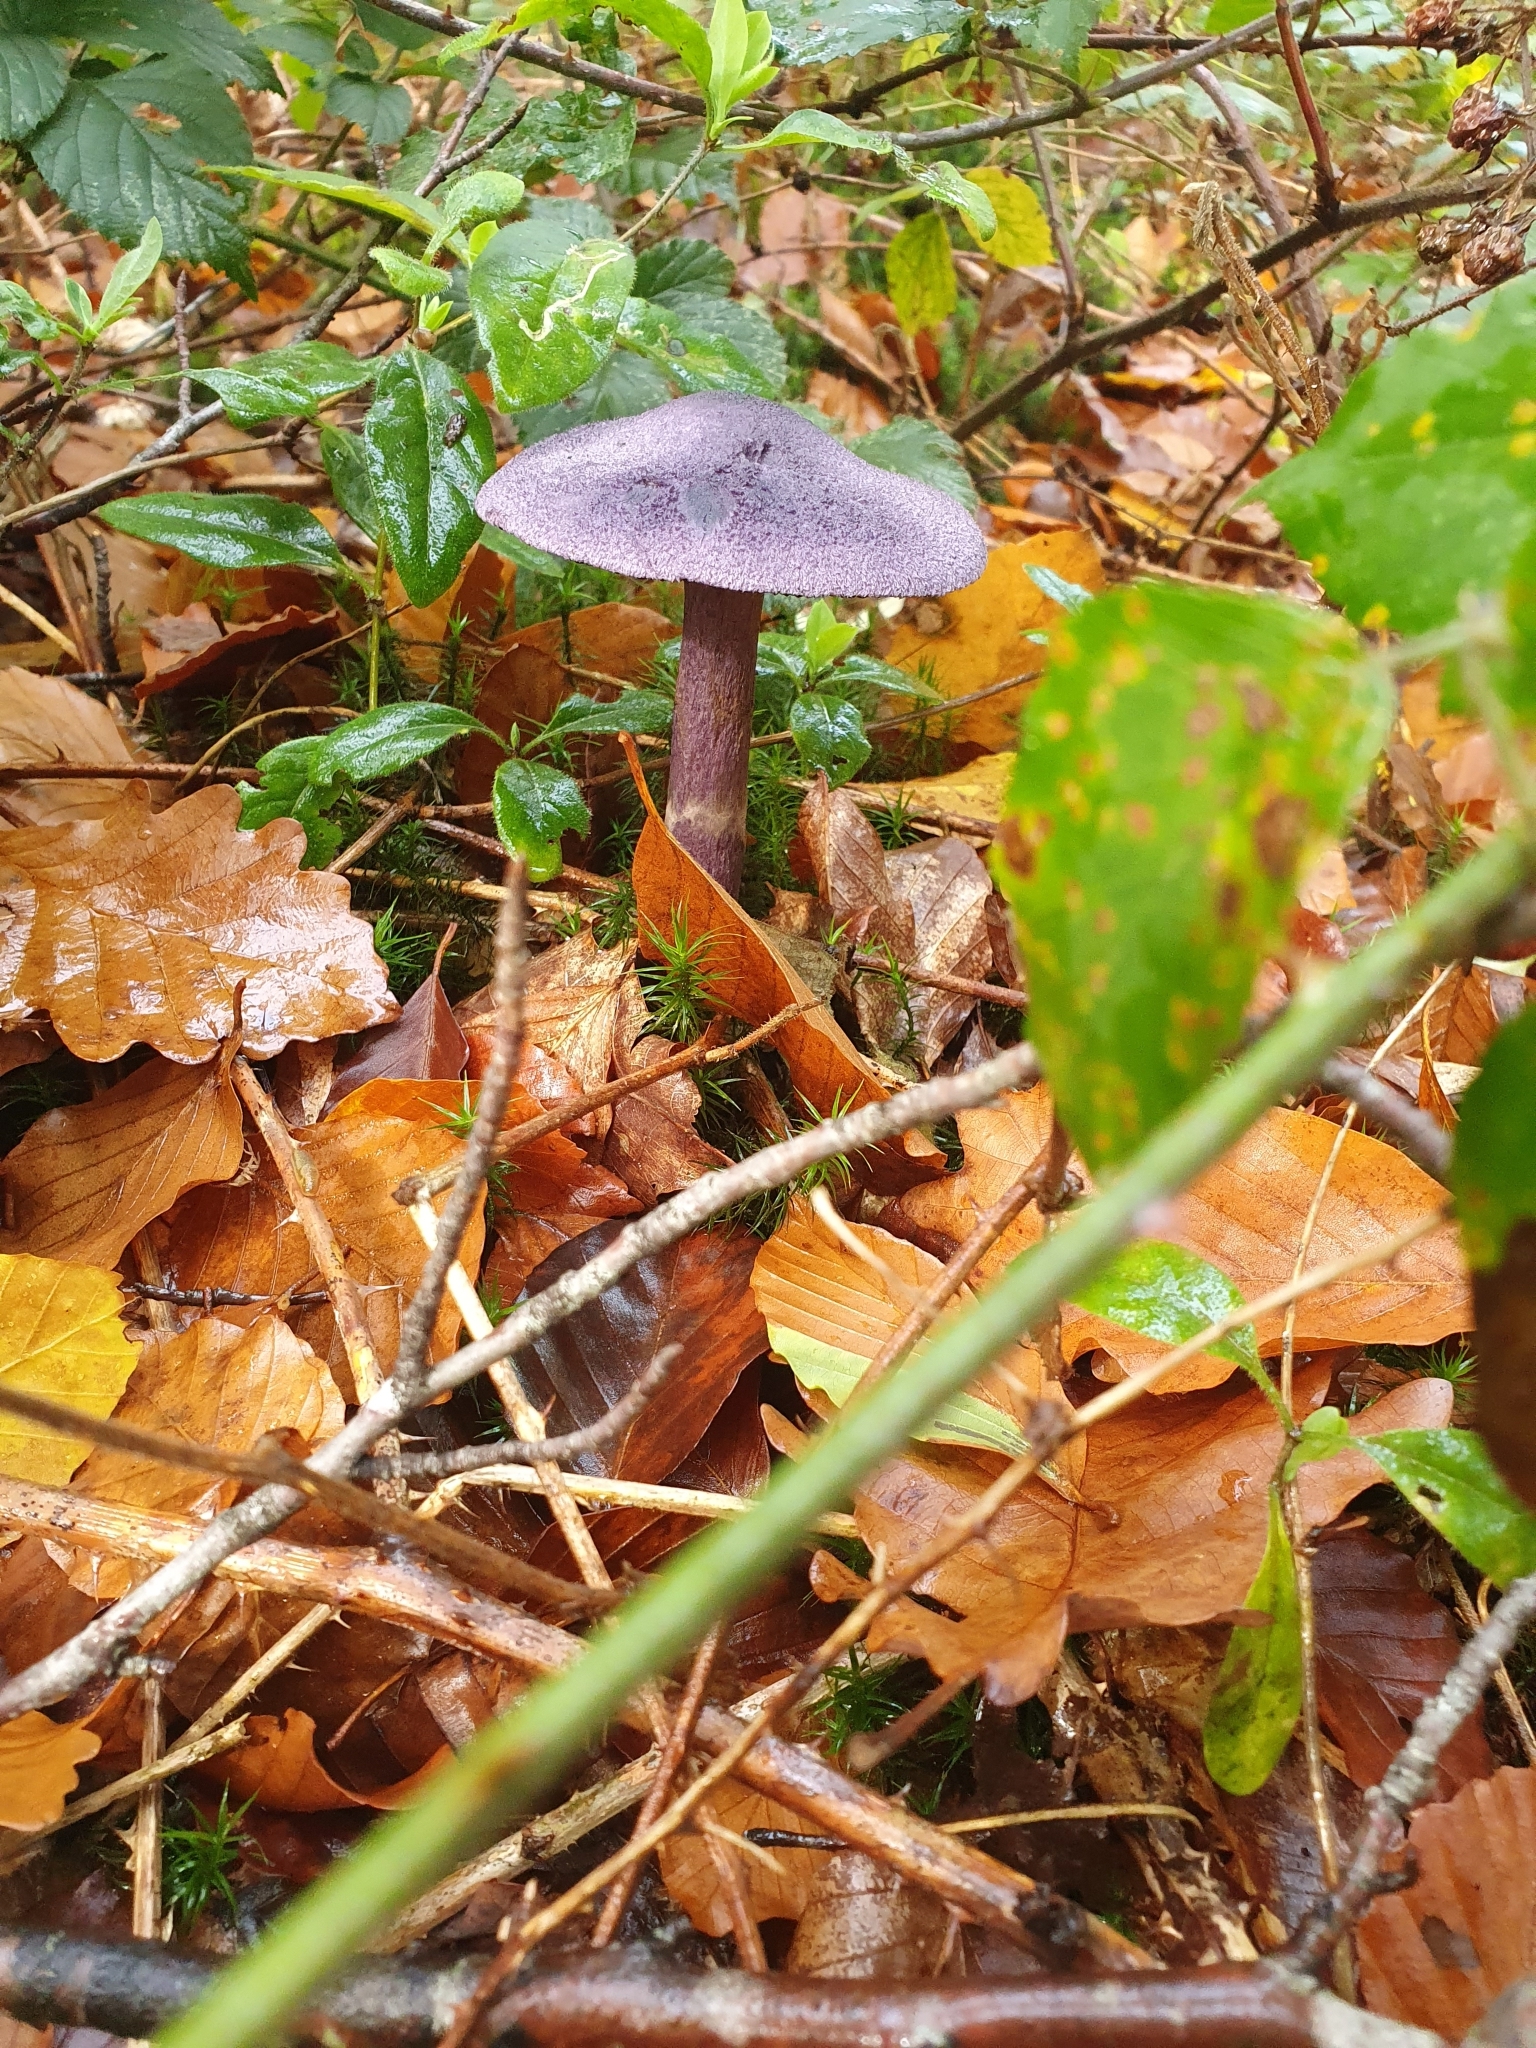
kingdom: Fungi
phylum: Basidiomycota
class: Agaricomycetes
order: Agaricales
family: Cortinariaceae
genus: Cortinarius
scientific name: Cortinarius violaceus
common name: Violet webcap
